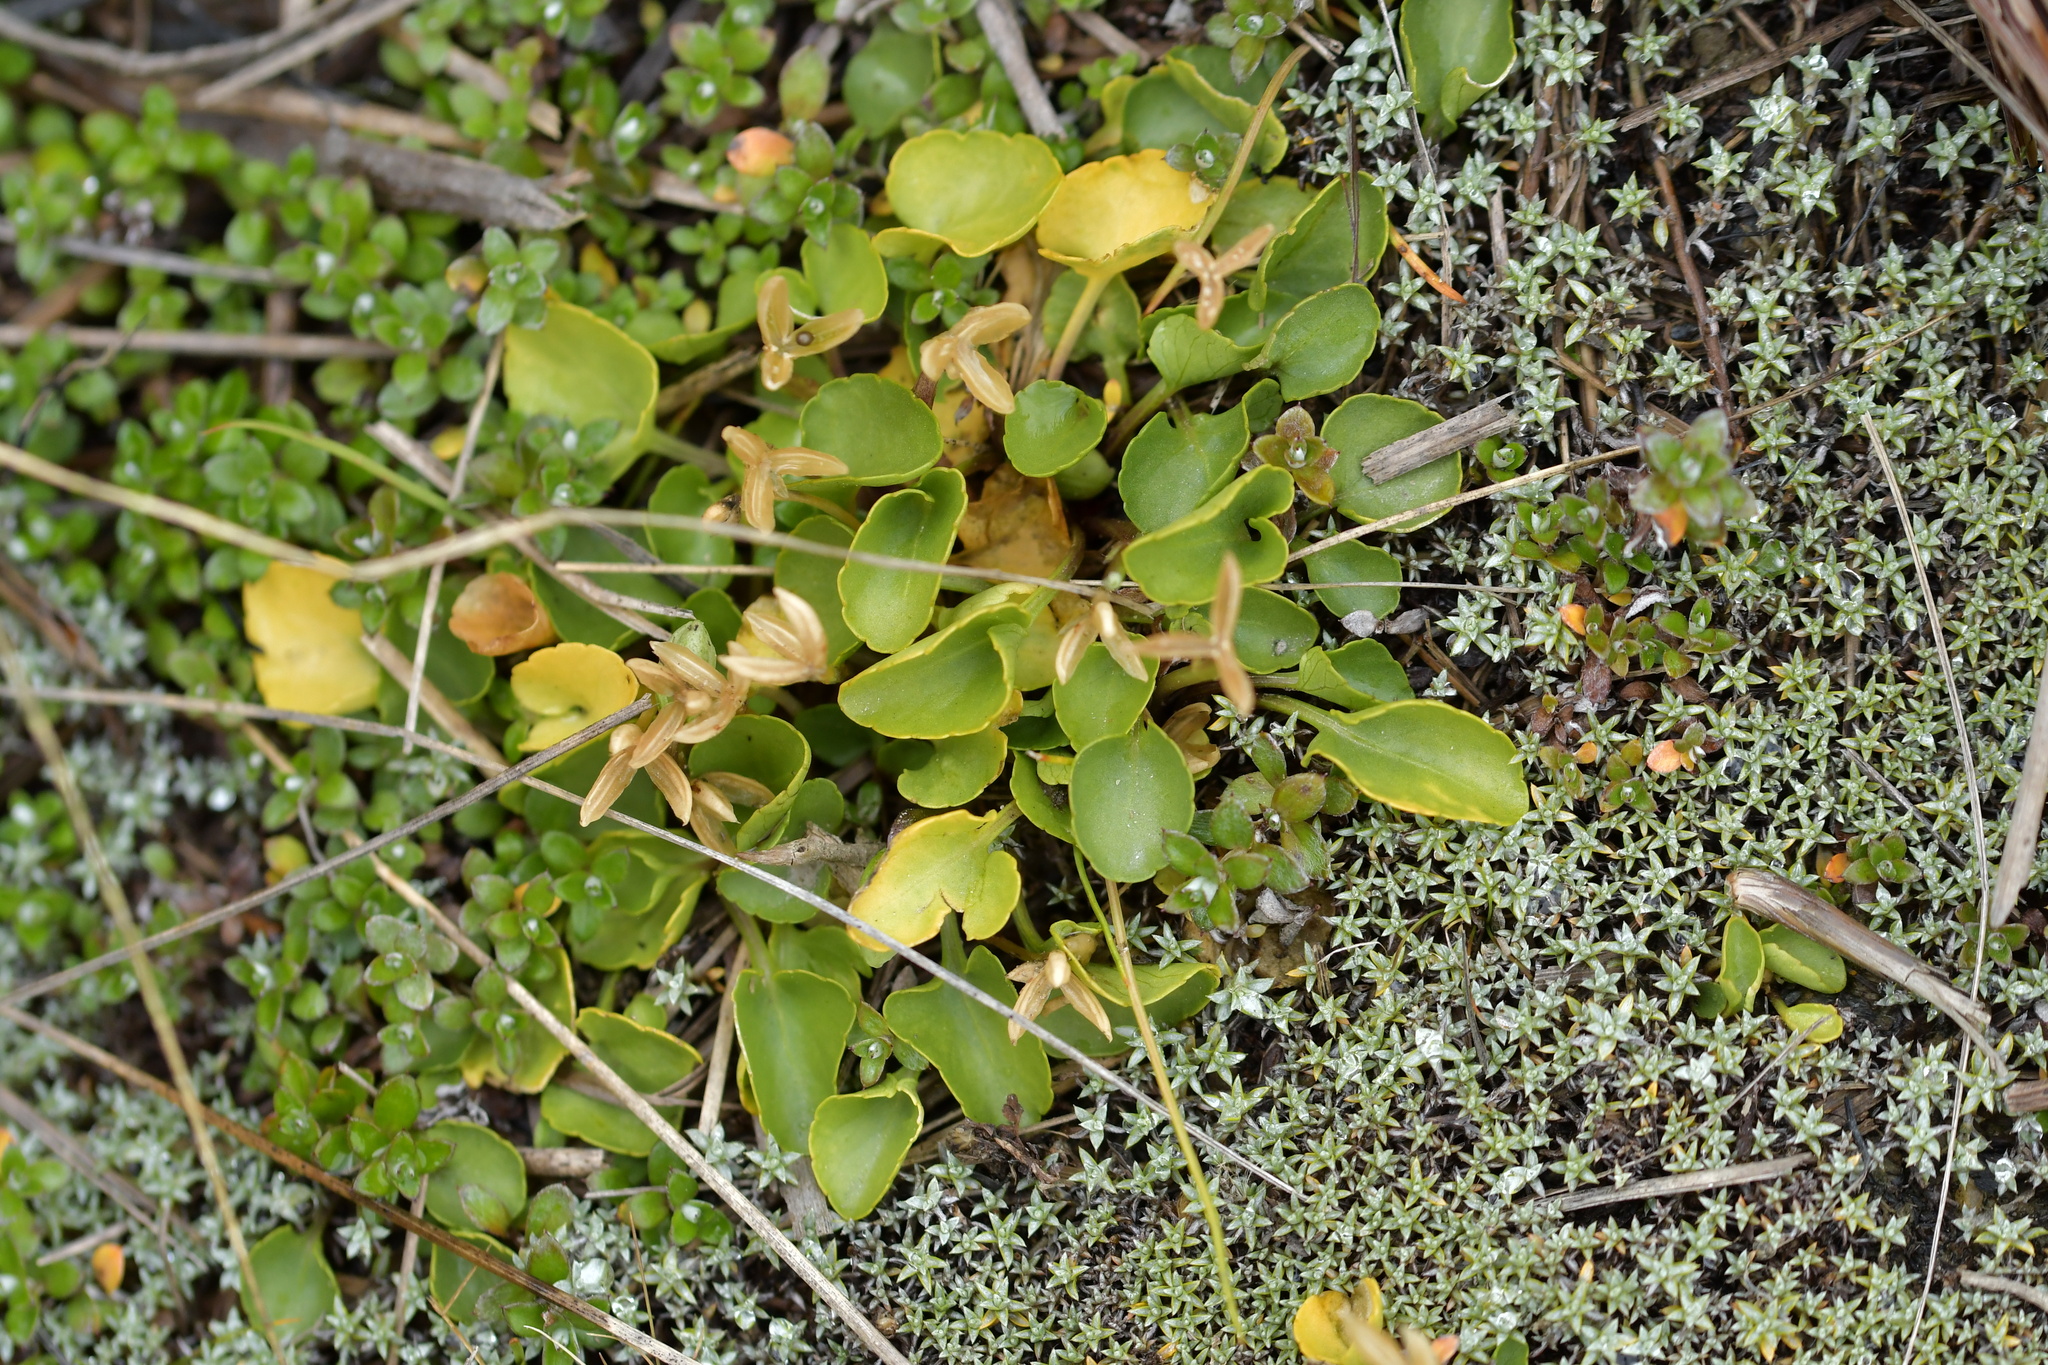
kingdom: Plantae
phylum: Tracheophyta
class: Magnoliopsida
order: Malpighiales
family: Violaceae
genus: Viola
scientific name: Viola cunninghamii
